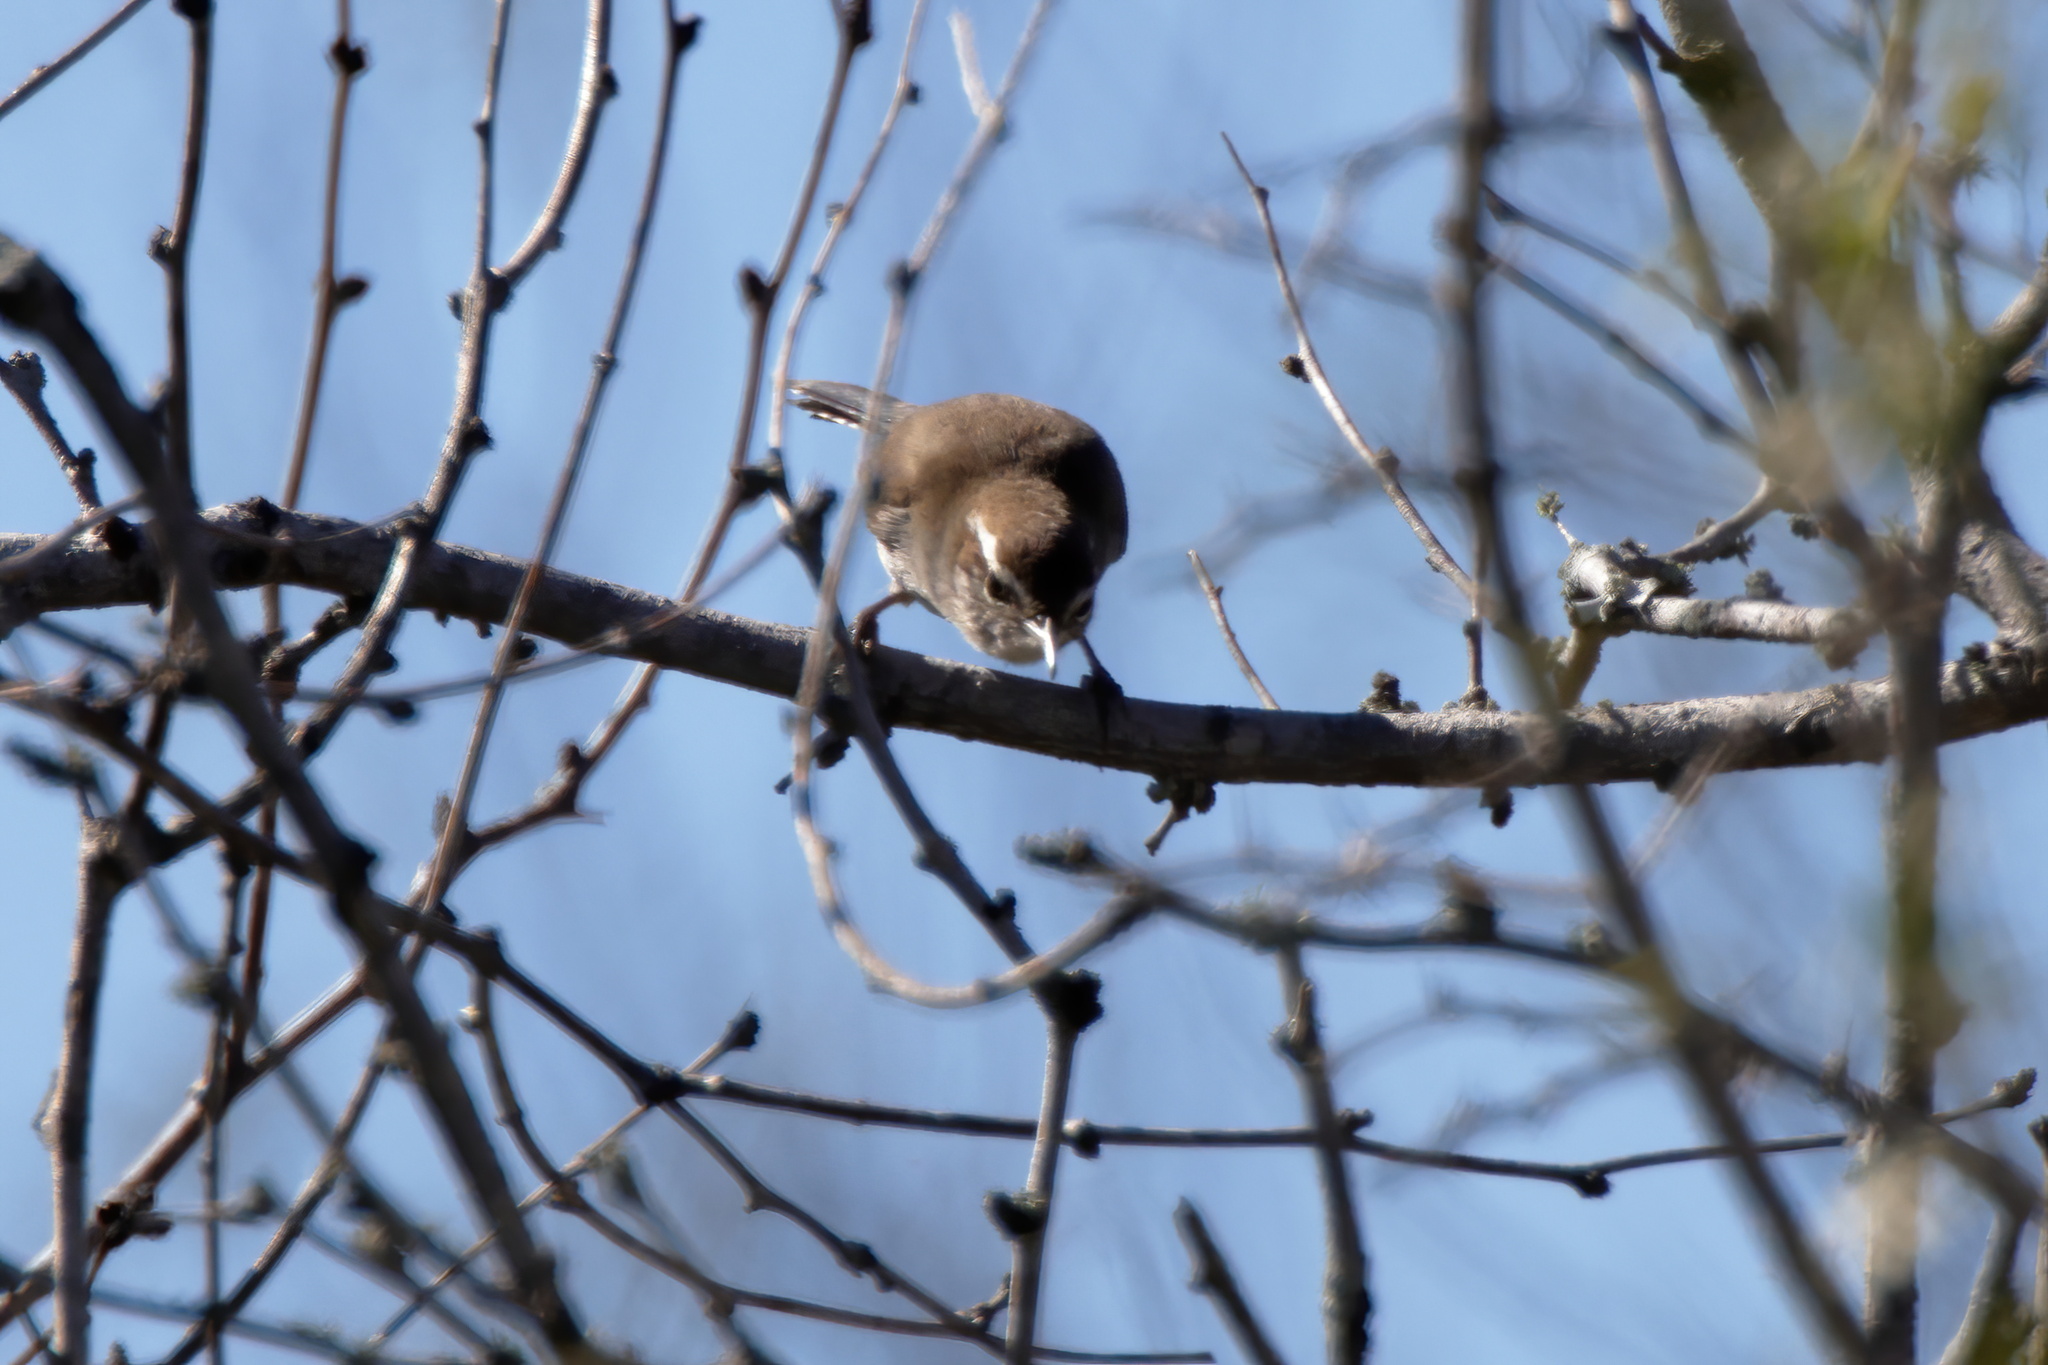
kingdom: Animalia
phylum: Chordata
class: Aves
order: Passeriformes
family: Troglodytidae
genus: Thryomanes
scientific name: Thryomanes bewickii
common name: Bewick's wren
